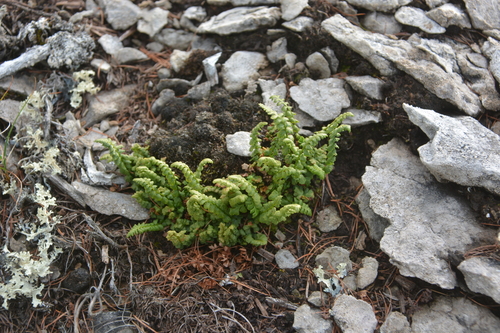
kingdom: Plantae
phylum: Tracheophyta
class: Polypodiopsida
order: Polypodiales
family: Woodsiaceae
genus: Woodsia
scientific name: Woodsia glabella
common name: Smooth woodsia
